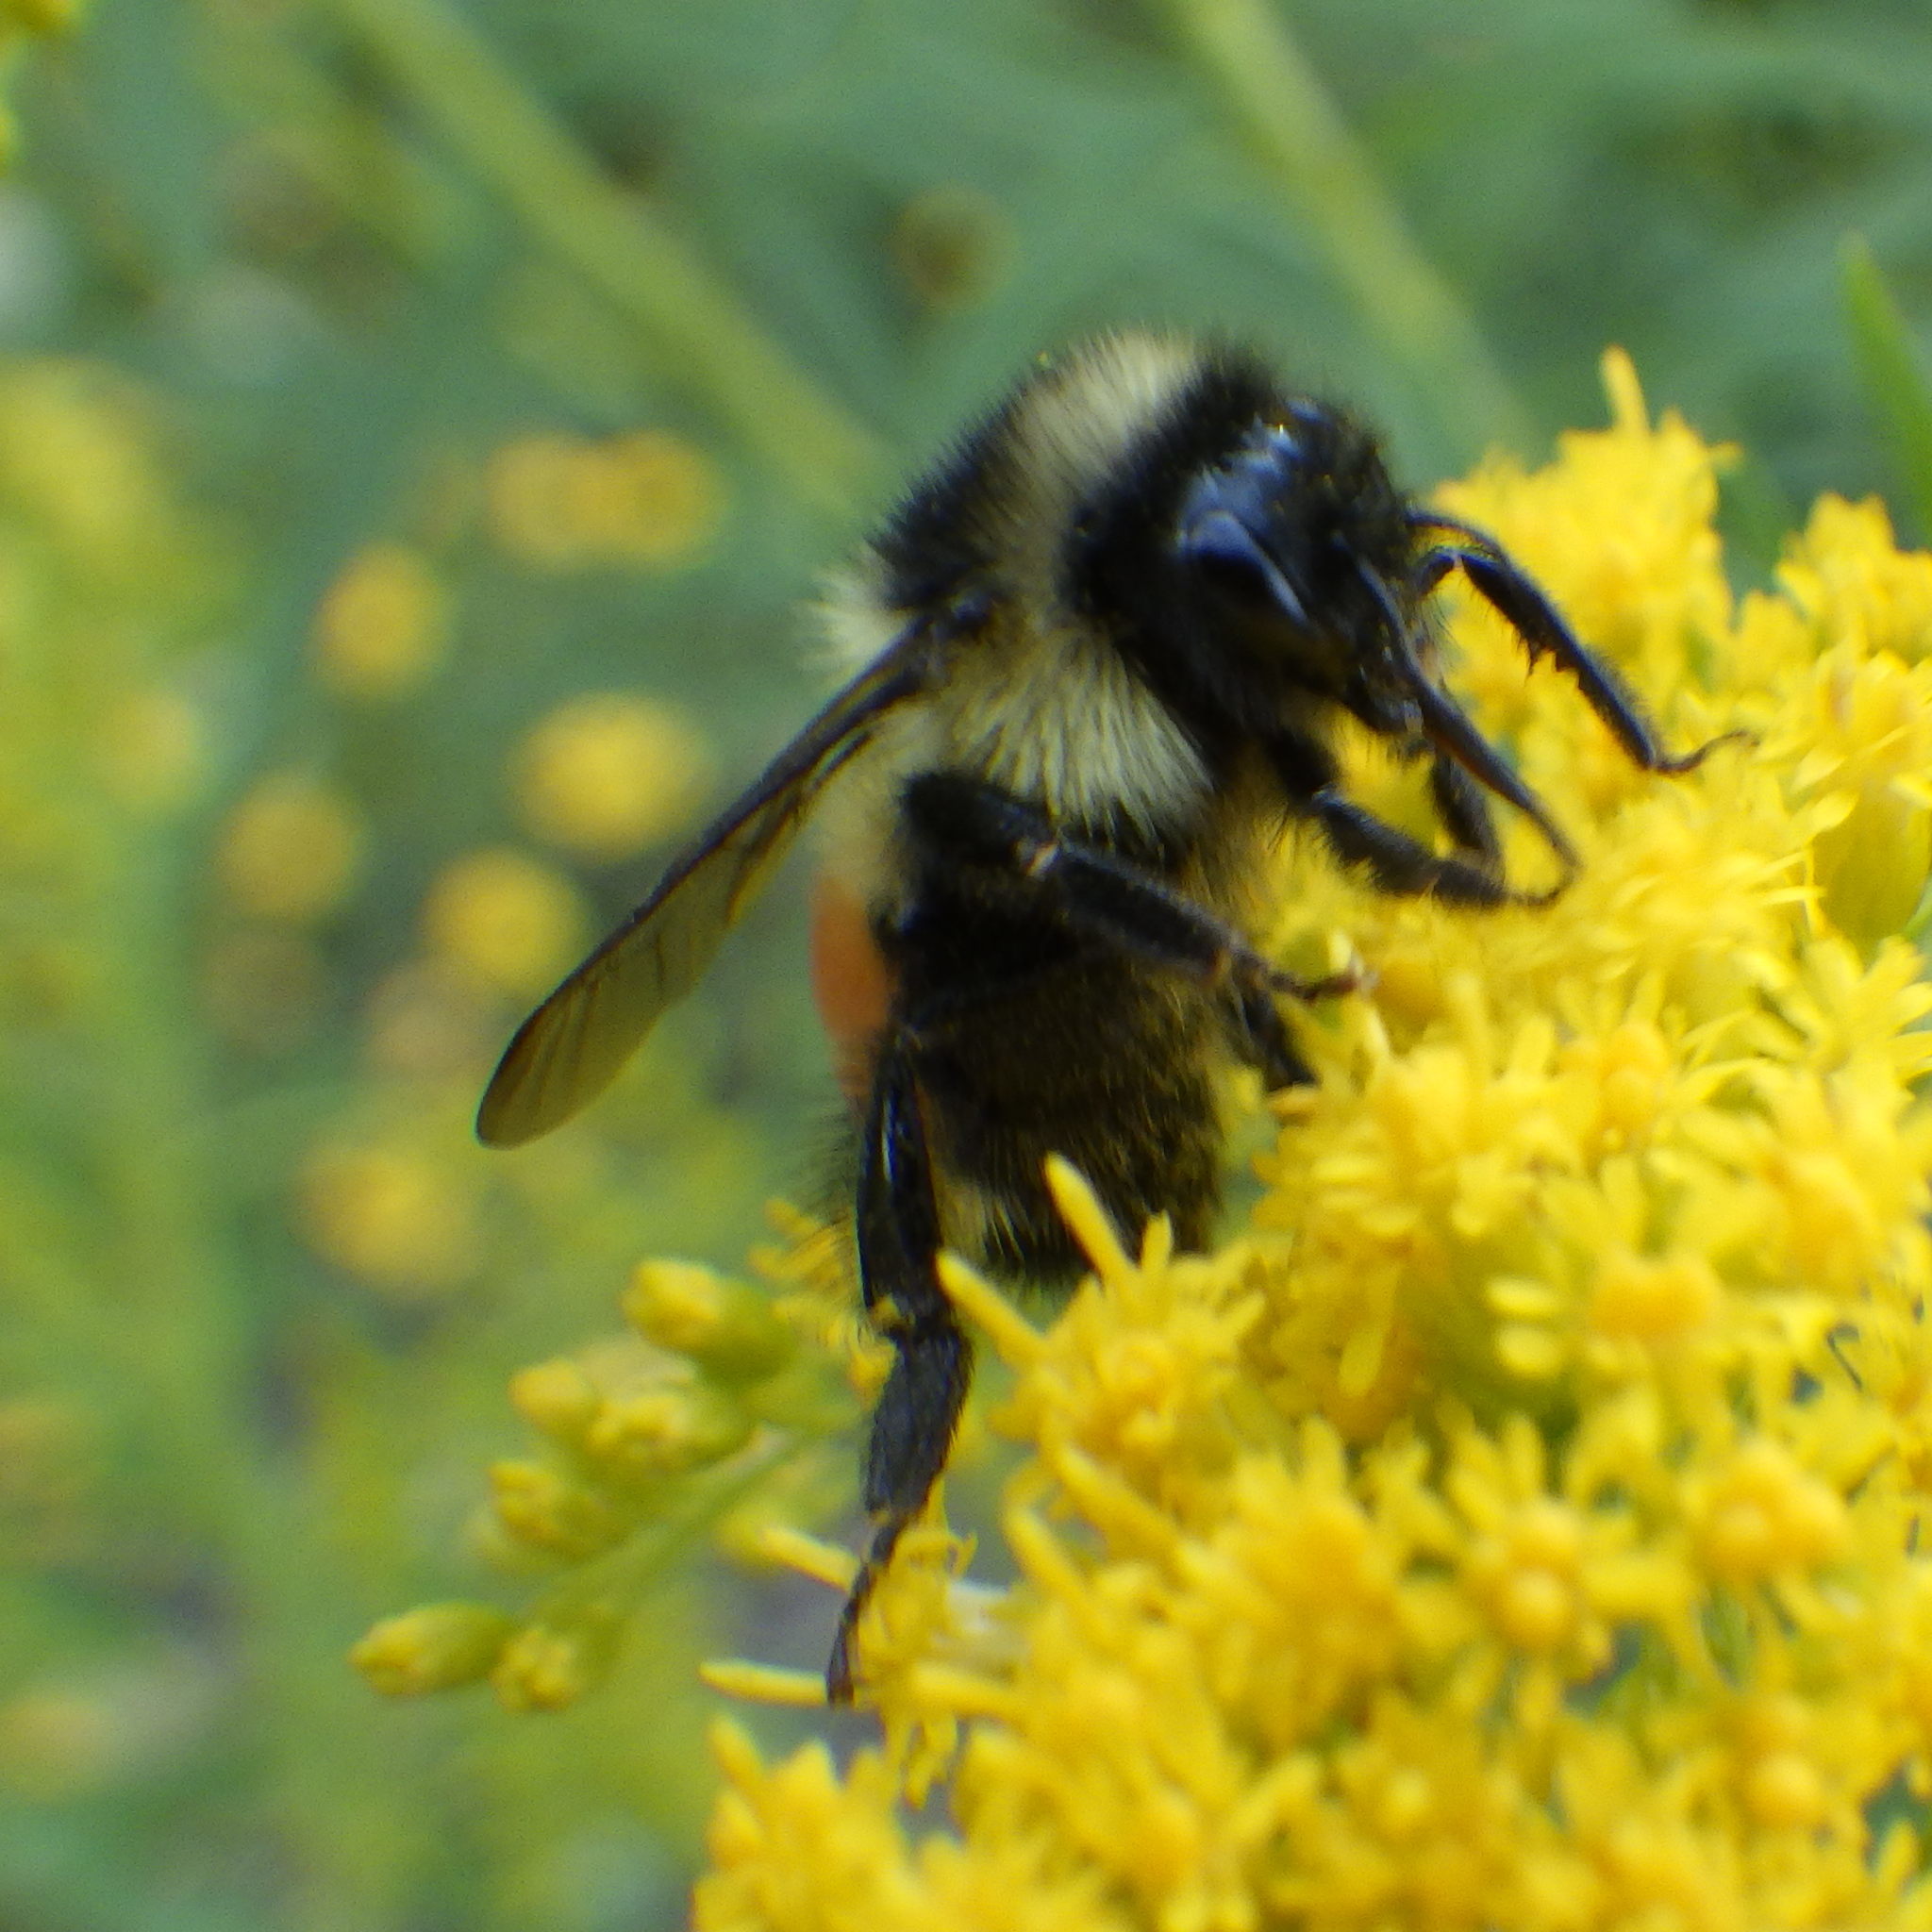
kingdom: Animalia
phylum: Arthropoda
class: Insecta
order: Hymenoptera
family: Apidae
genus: Bombus
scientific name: Bombus ternarius
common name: Tri-colored bumble bee
